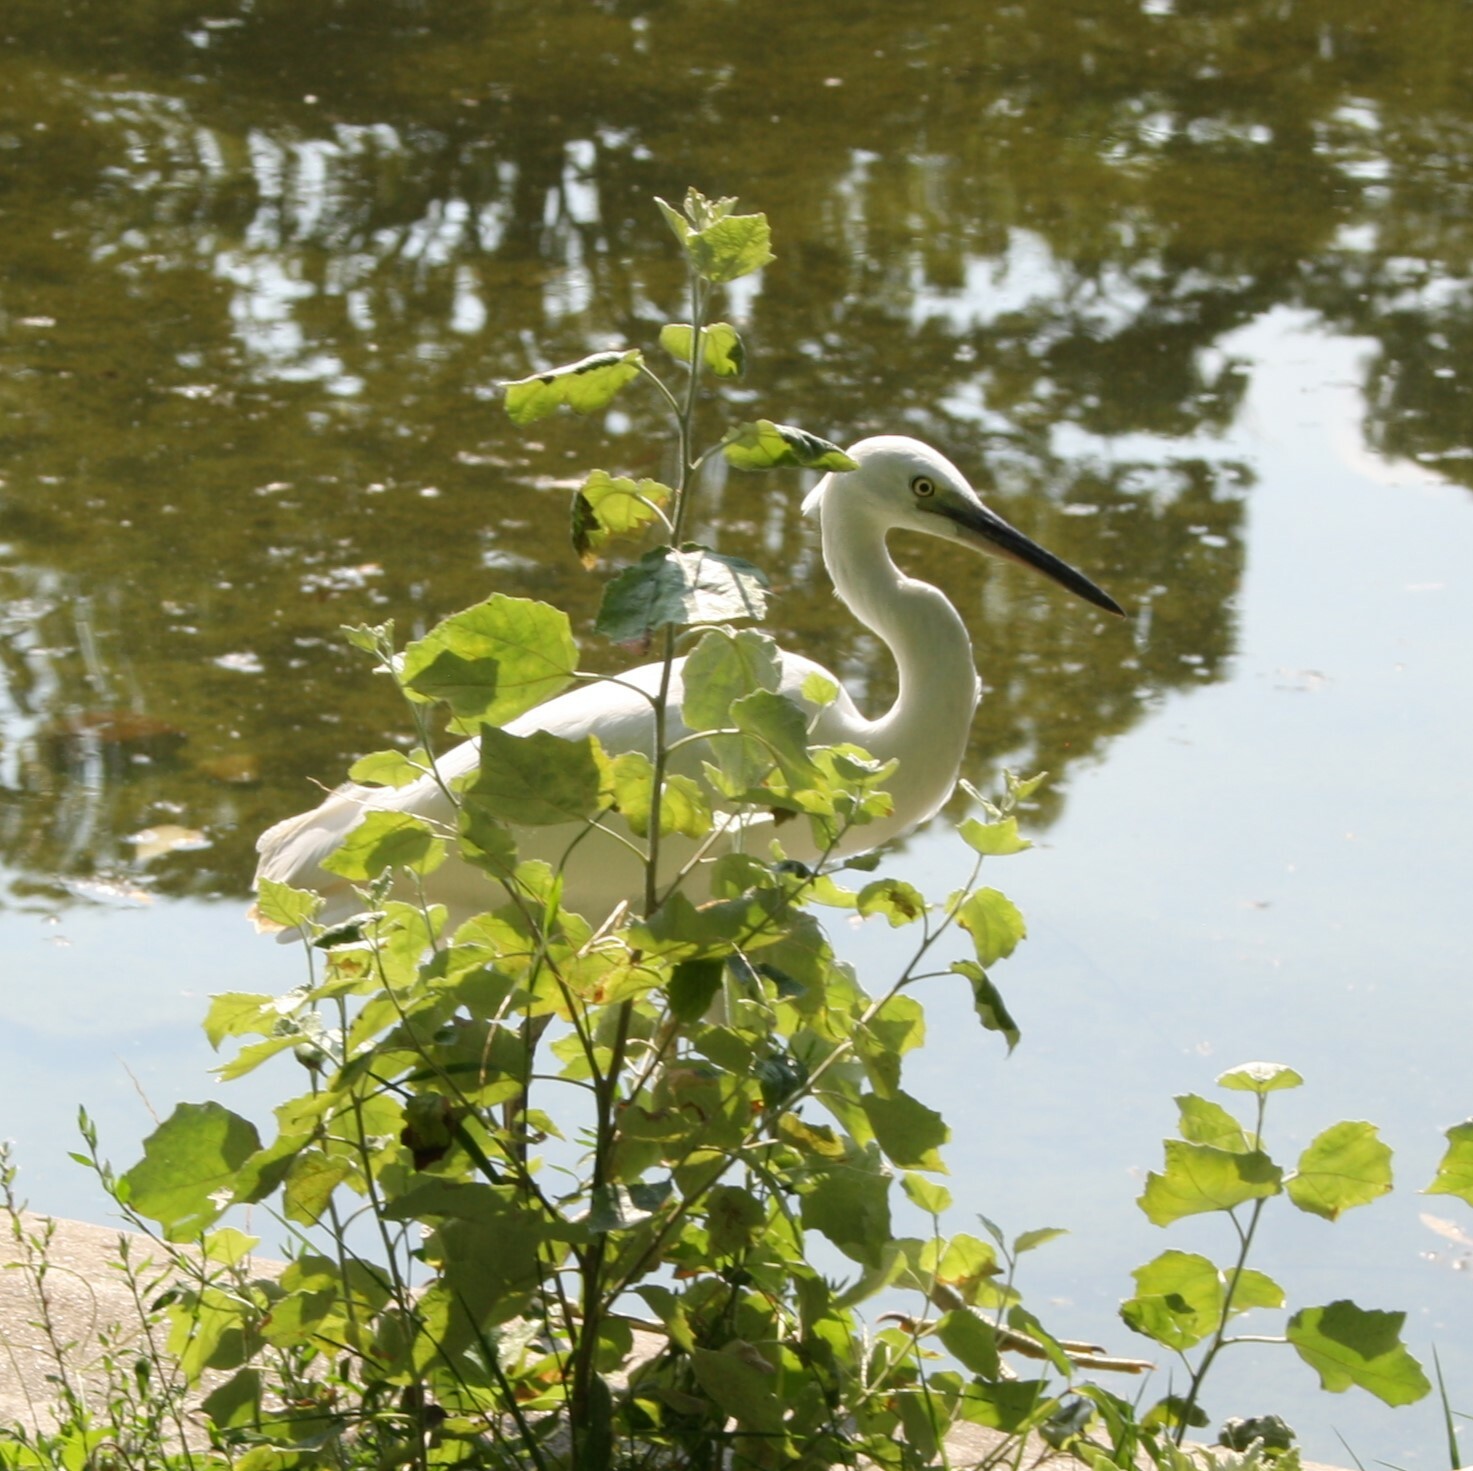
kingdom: Animalia
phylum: Chordata
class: Aves
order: Pelecaniformes
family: Ardeidae
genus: Egretta
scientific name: Egretta garzetta
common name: Little egret
